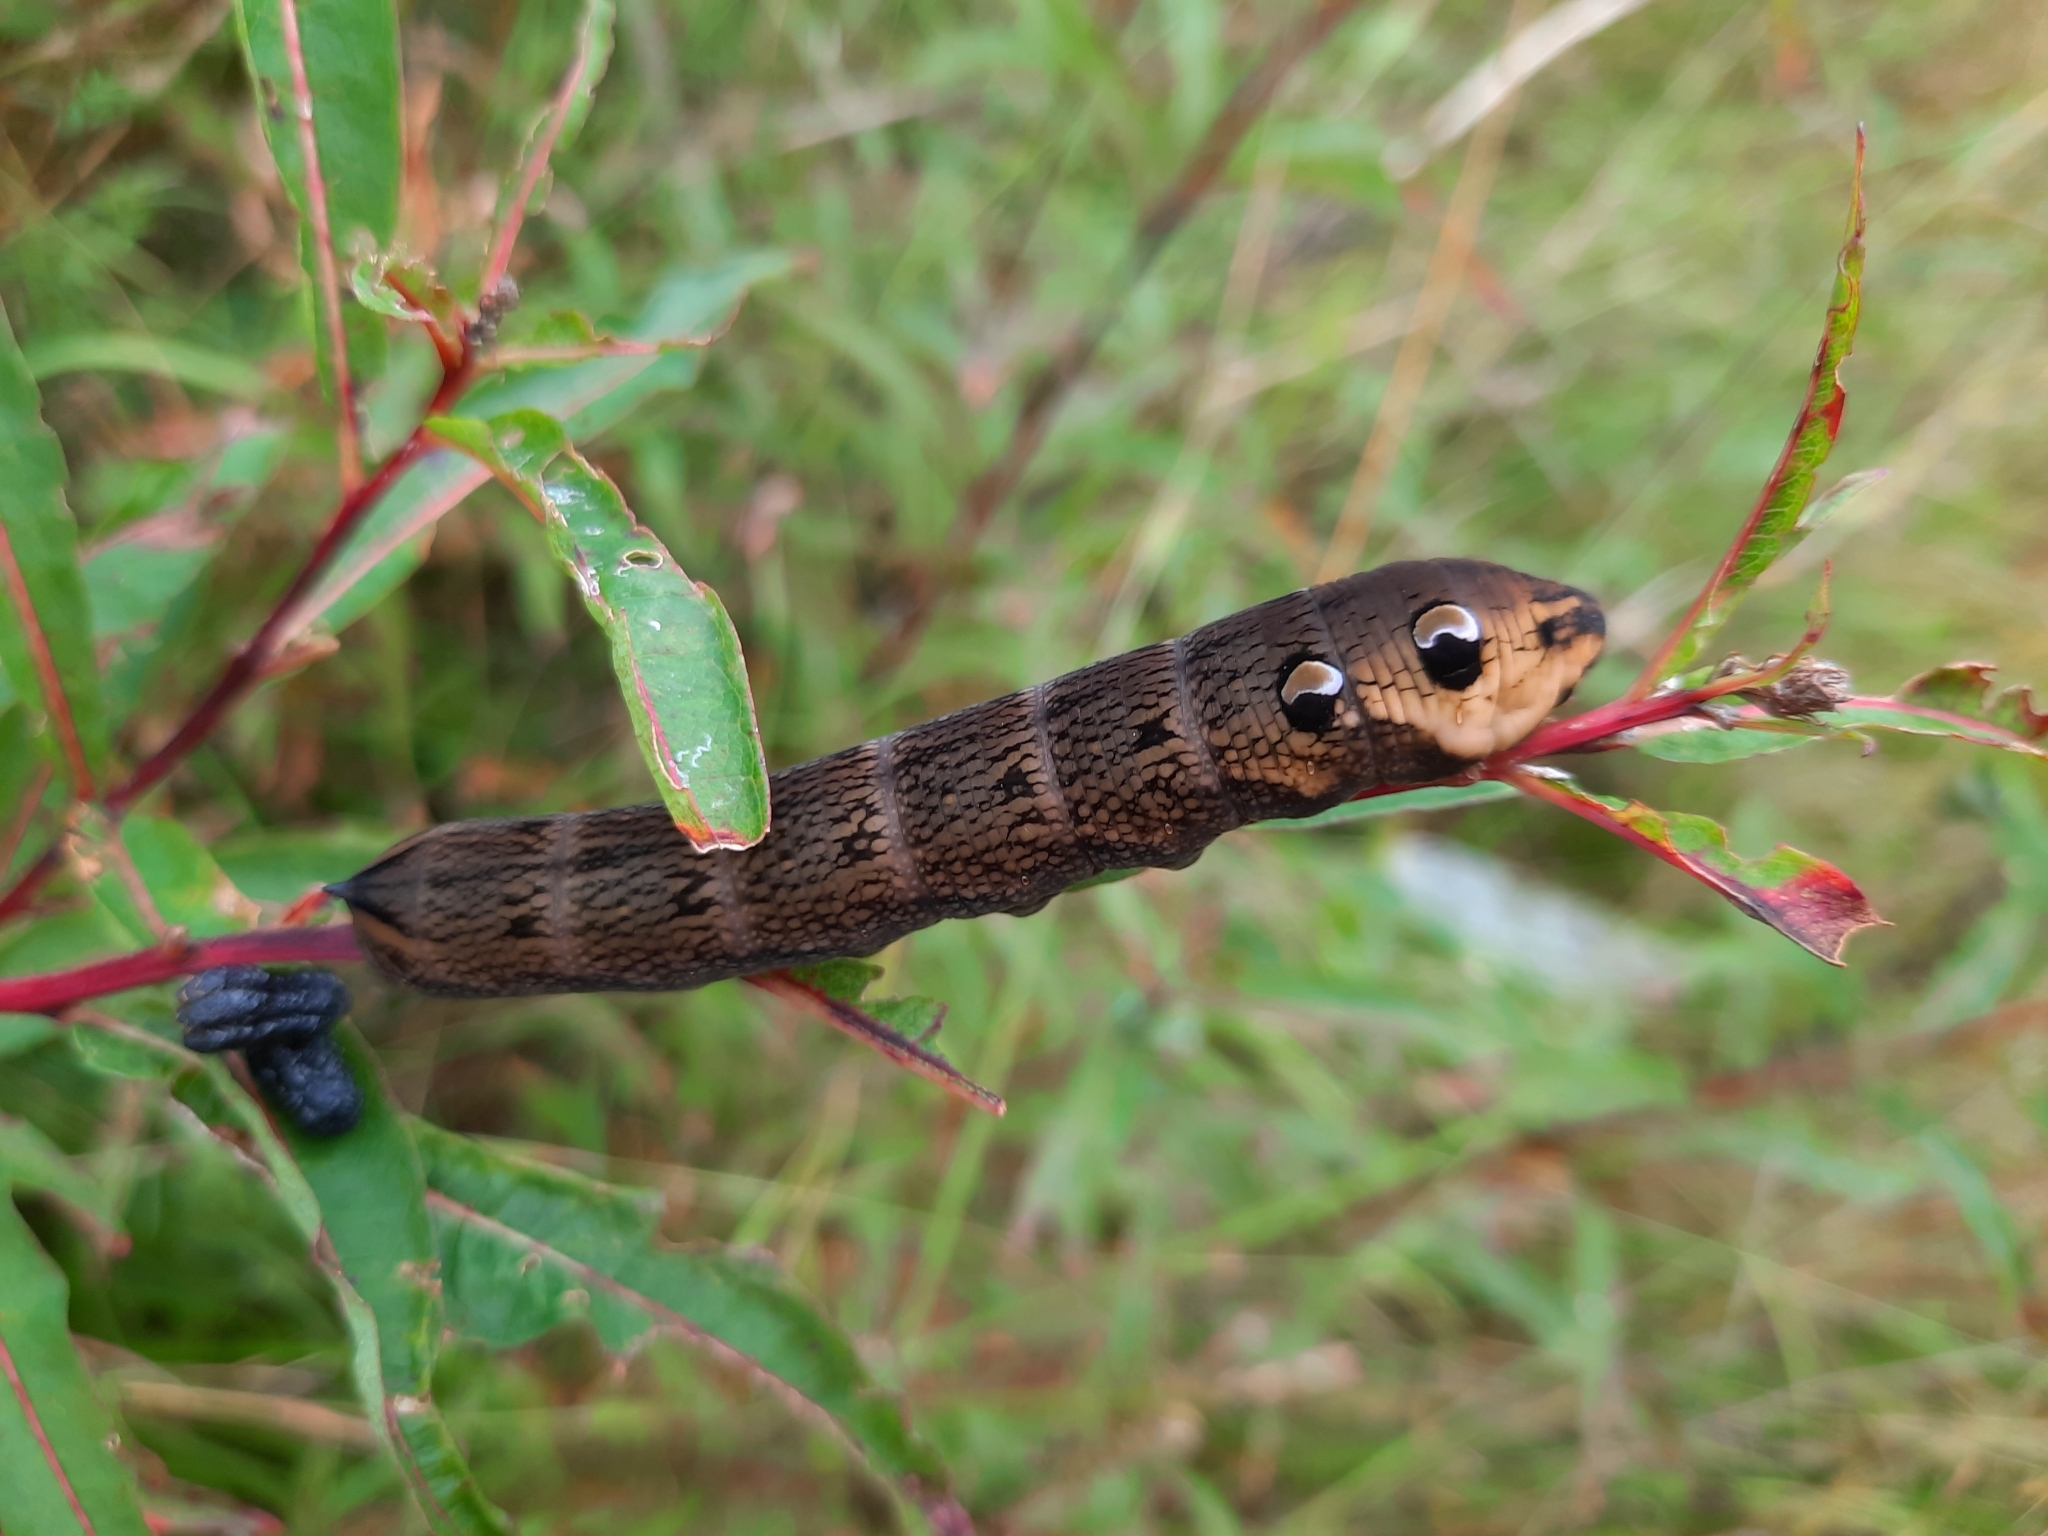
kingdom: Animalia
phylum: Arthropoda
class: Insecta
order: Lepidoptera
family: Sphingidae
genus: Deilephila
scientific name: Deilephila elpenor
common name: Elephant hawk-moth
